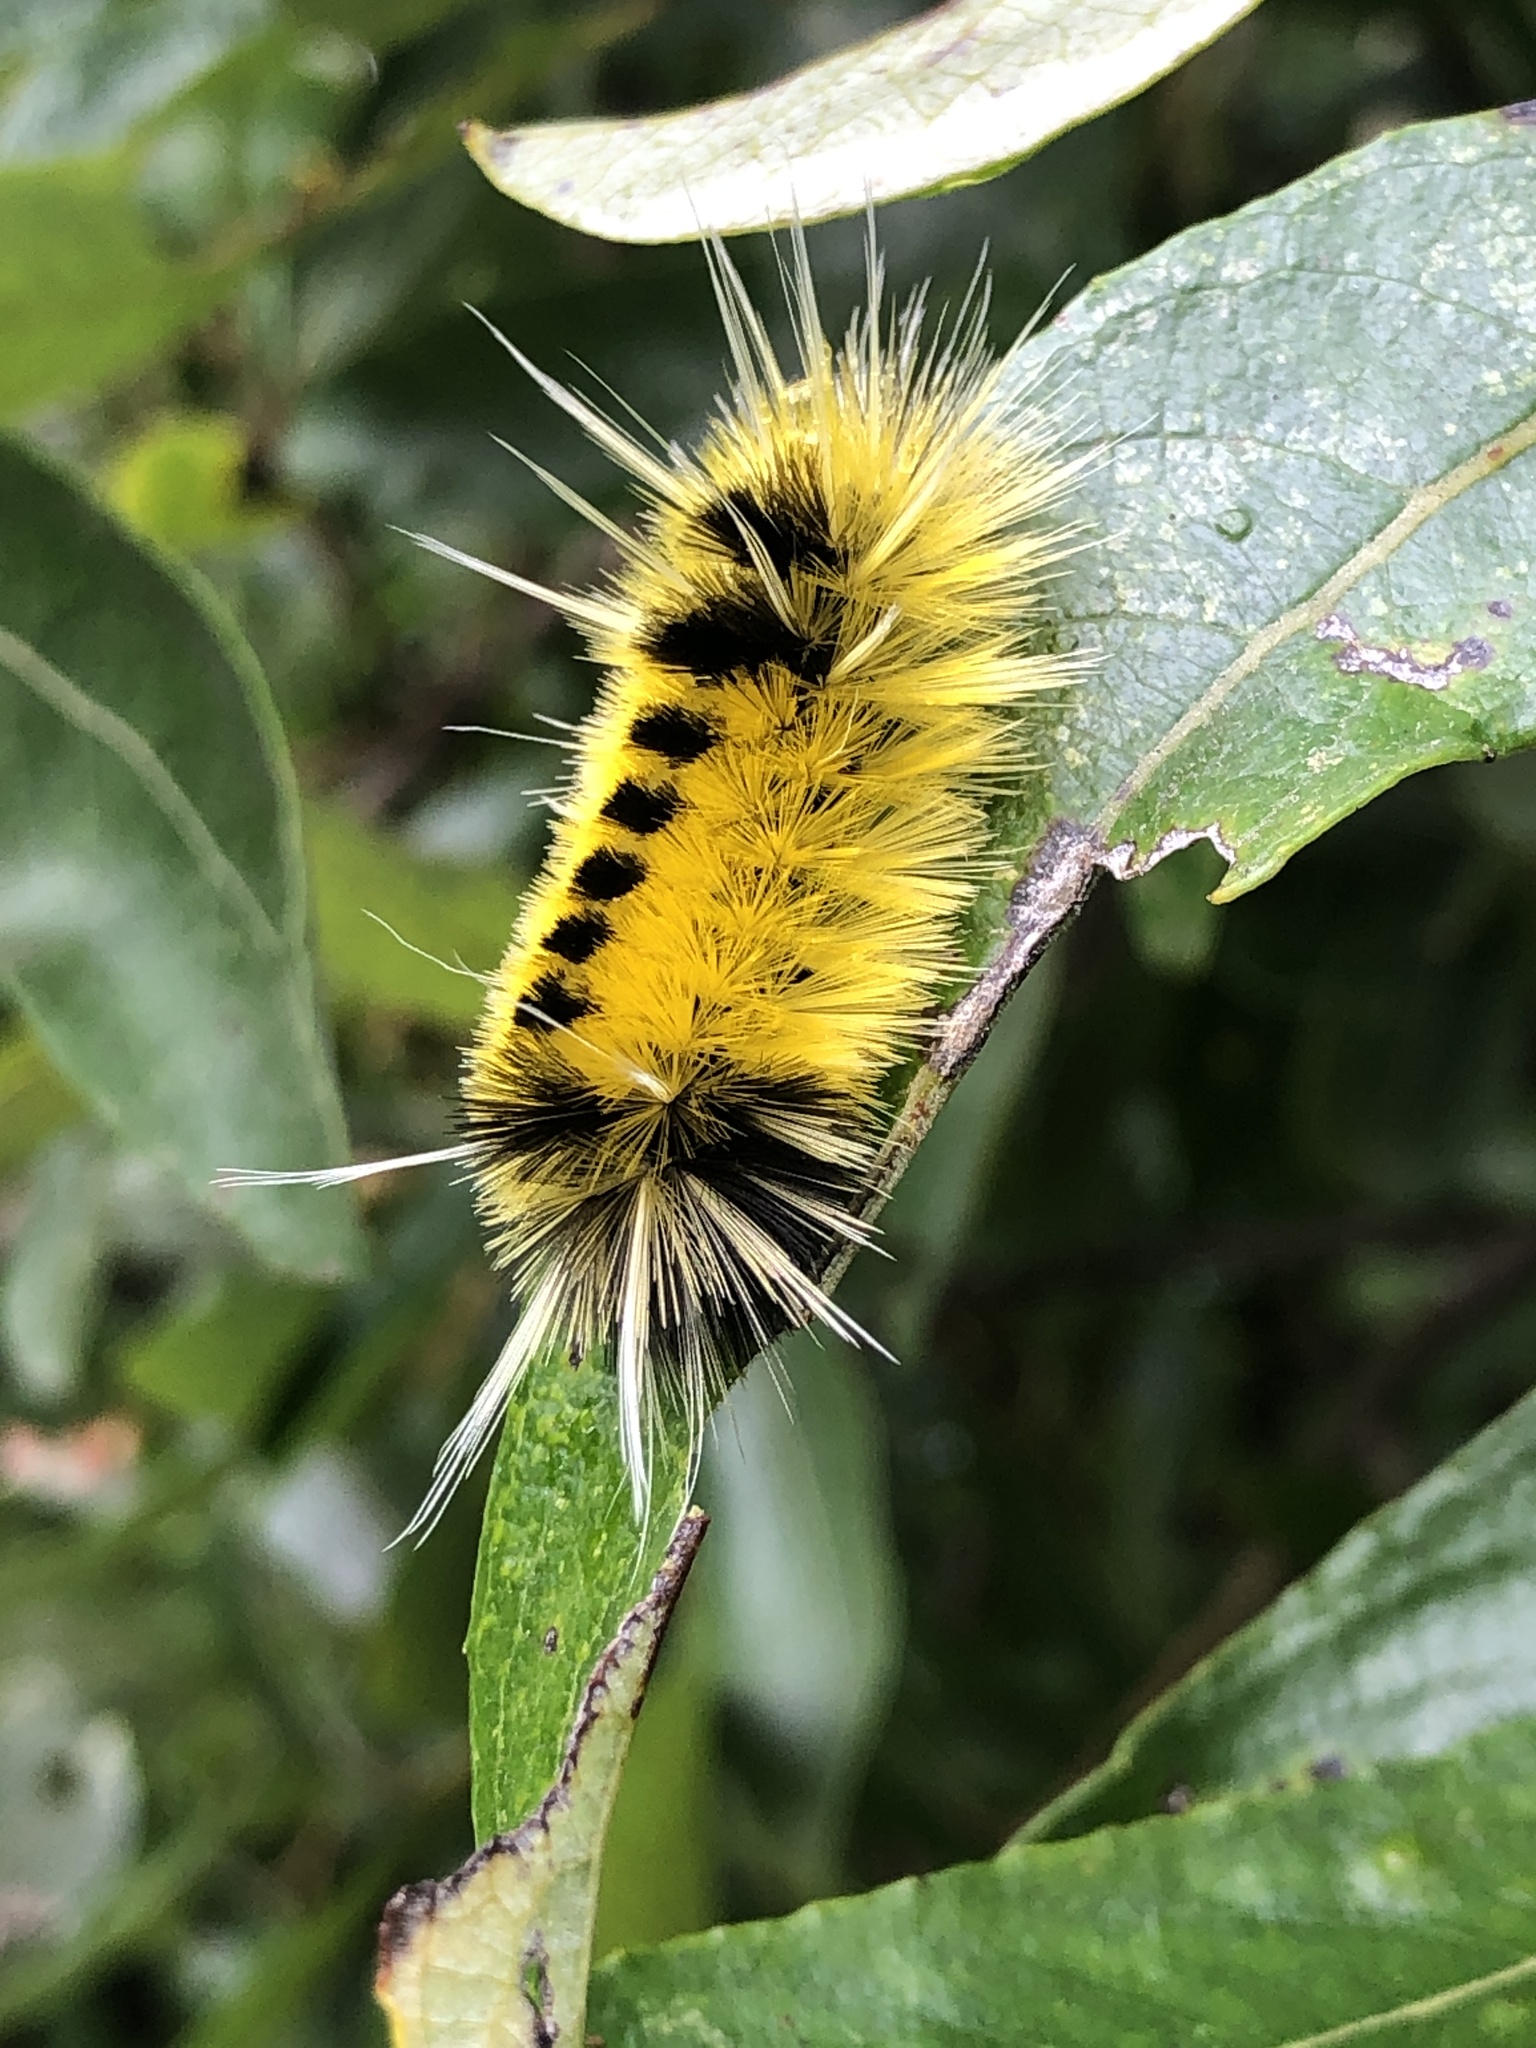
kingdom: Animalia
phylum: Arthropoda
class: Insecta
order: Lepidoptera
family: Erebidae
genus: Lophocampa
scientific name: Lophocampa maculata
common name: Spotted tussock moth
